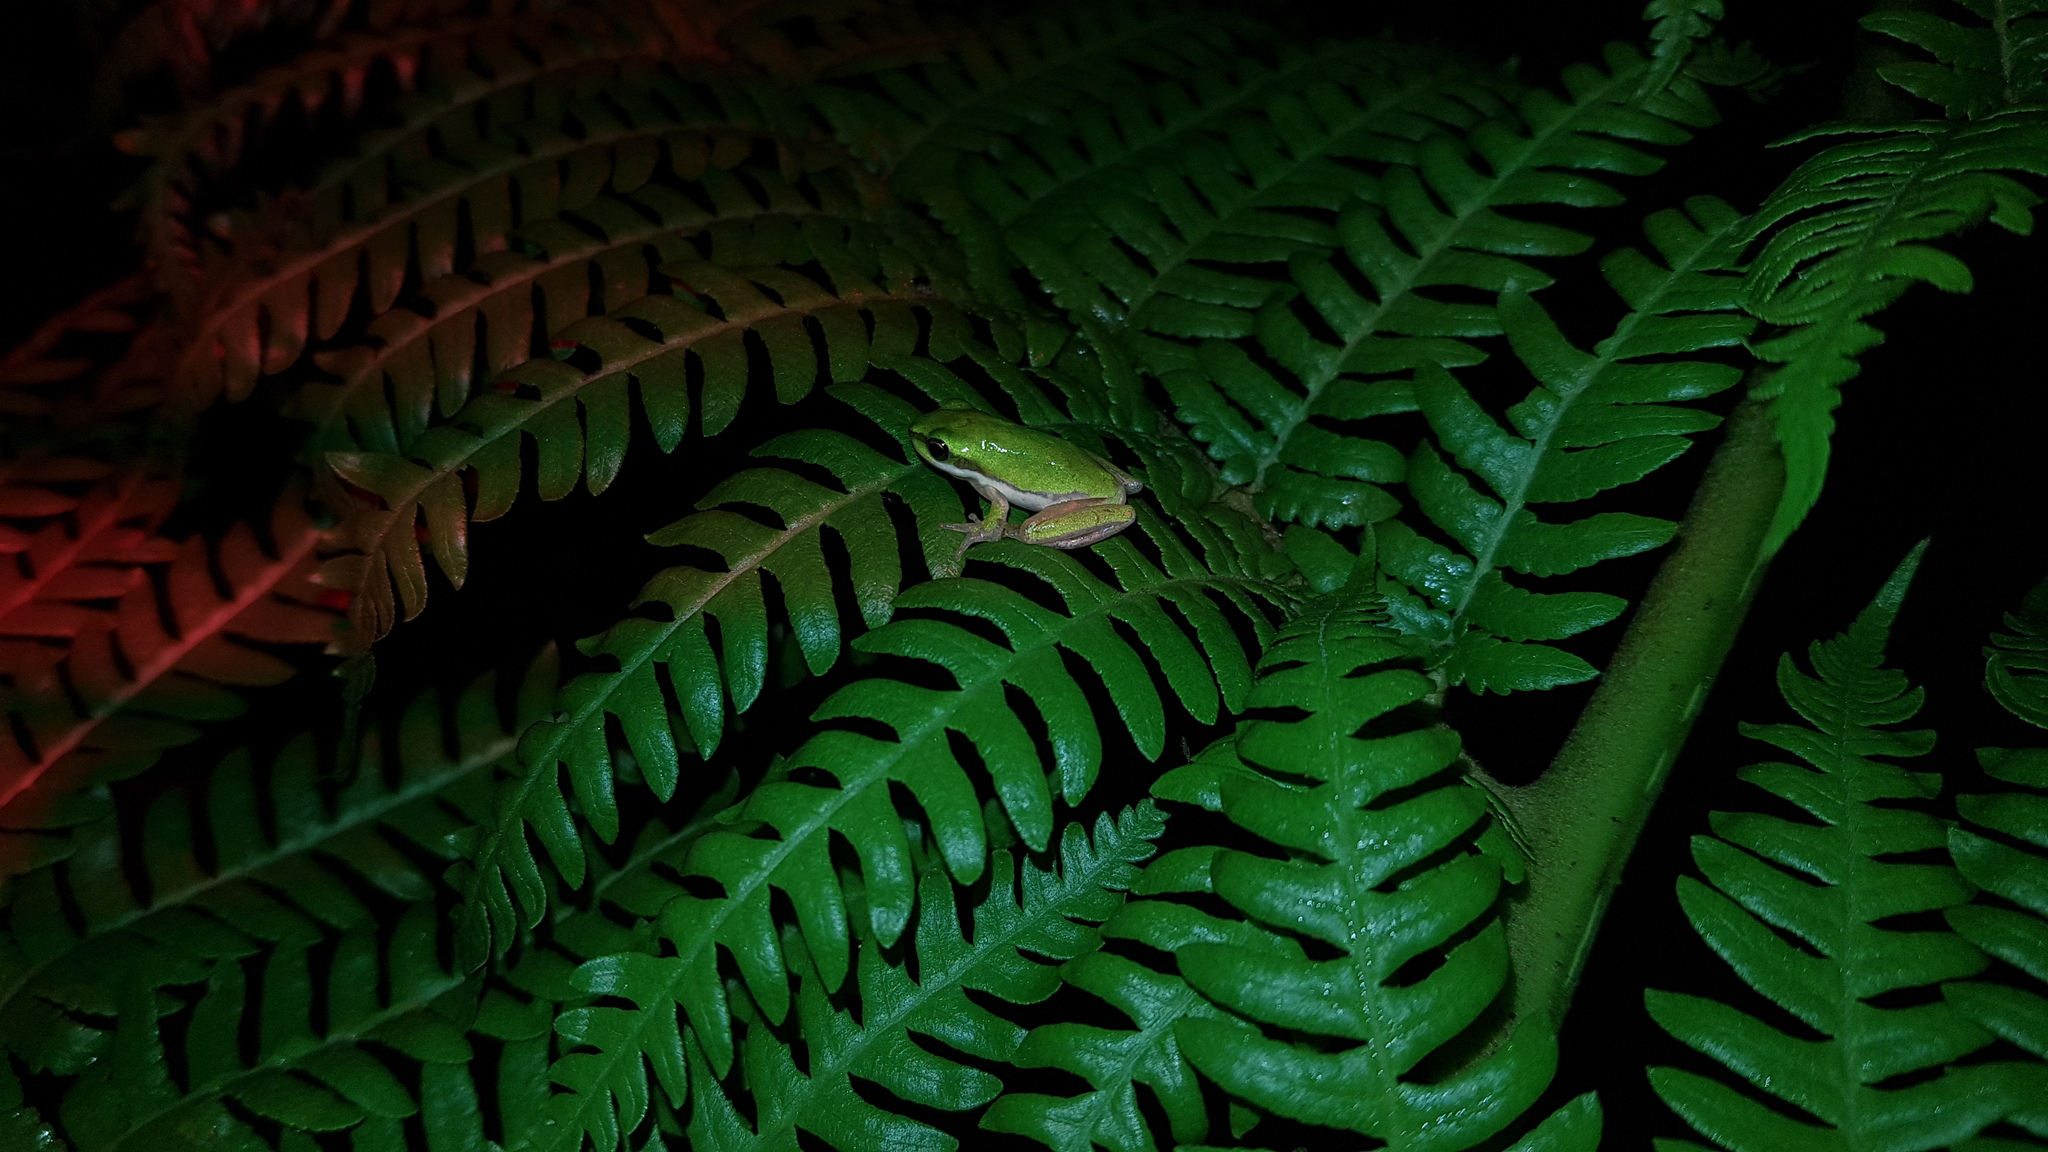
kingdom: Animalia
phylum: Chordata
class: Amphibia
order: Anura
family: Pelodryadidae
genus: Litoria
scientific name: Litoria fallax
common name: Eastern dwarf treefrog
